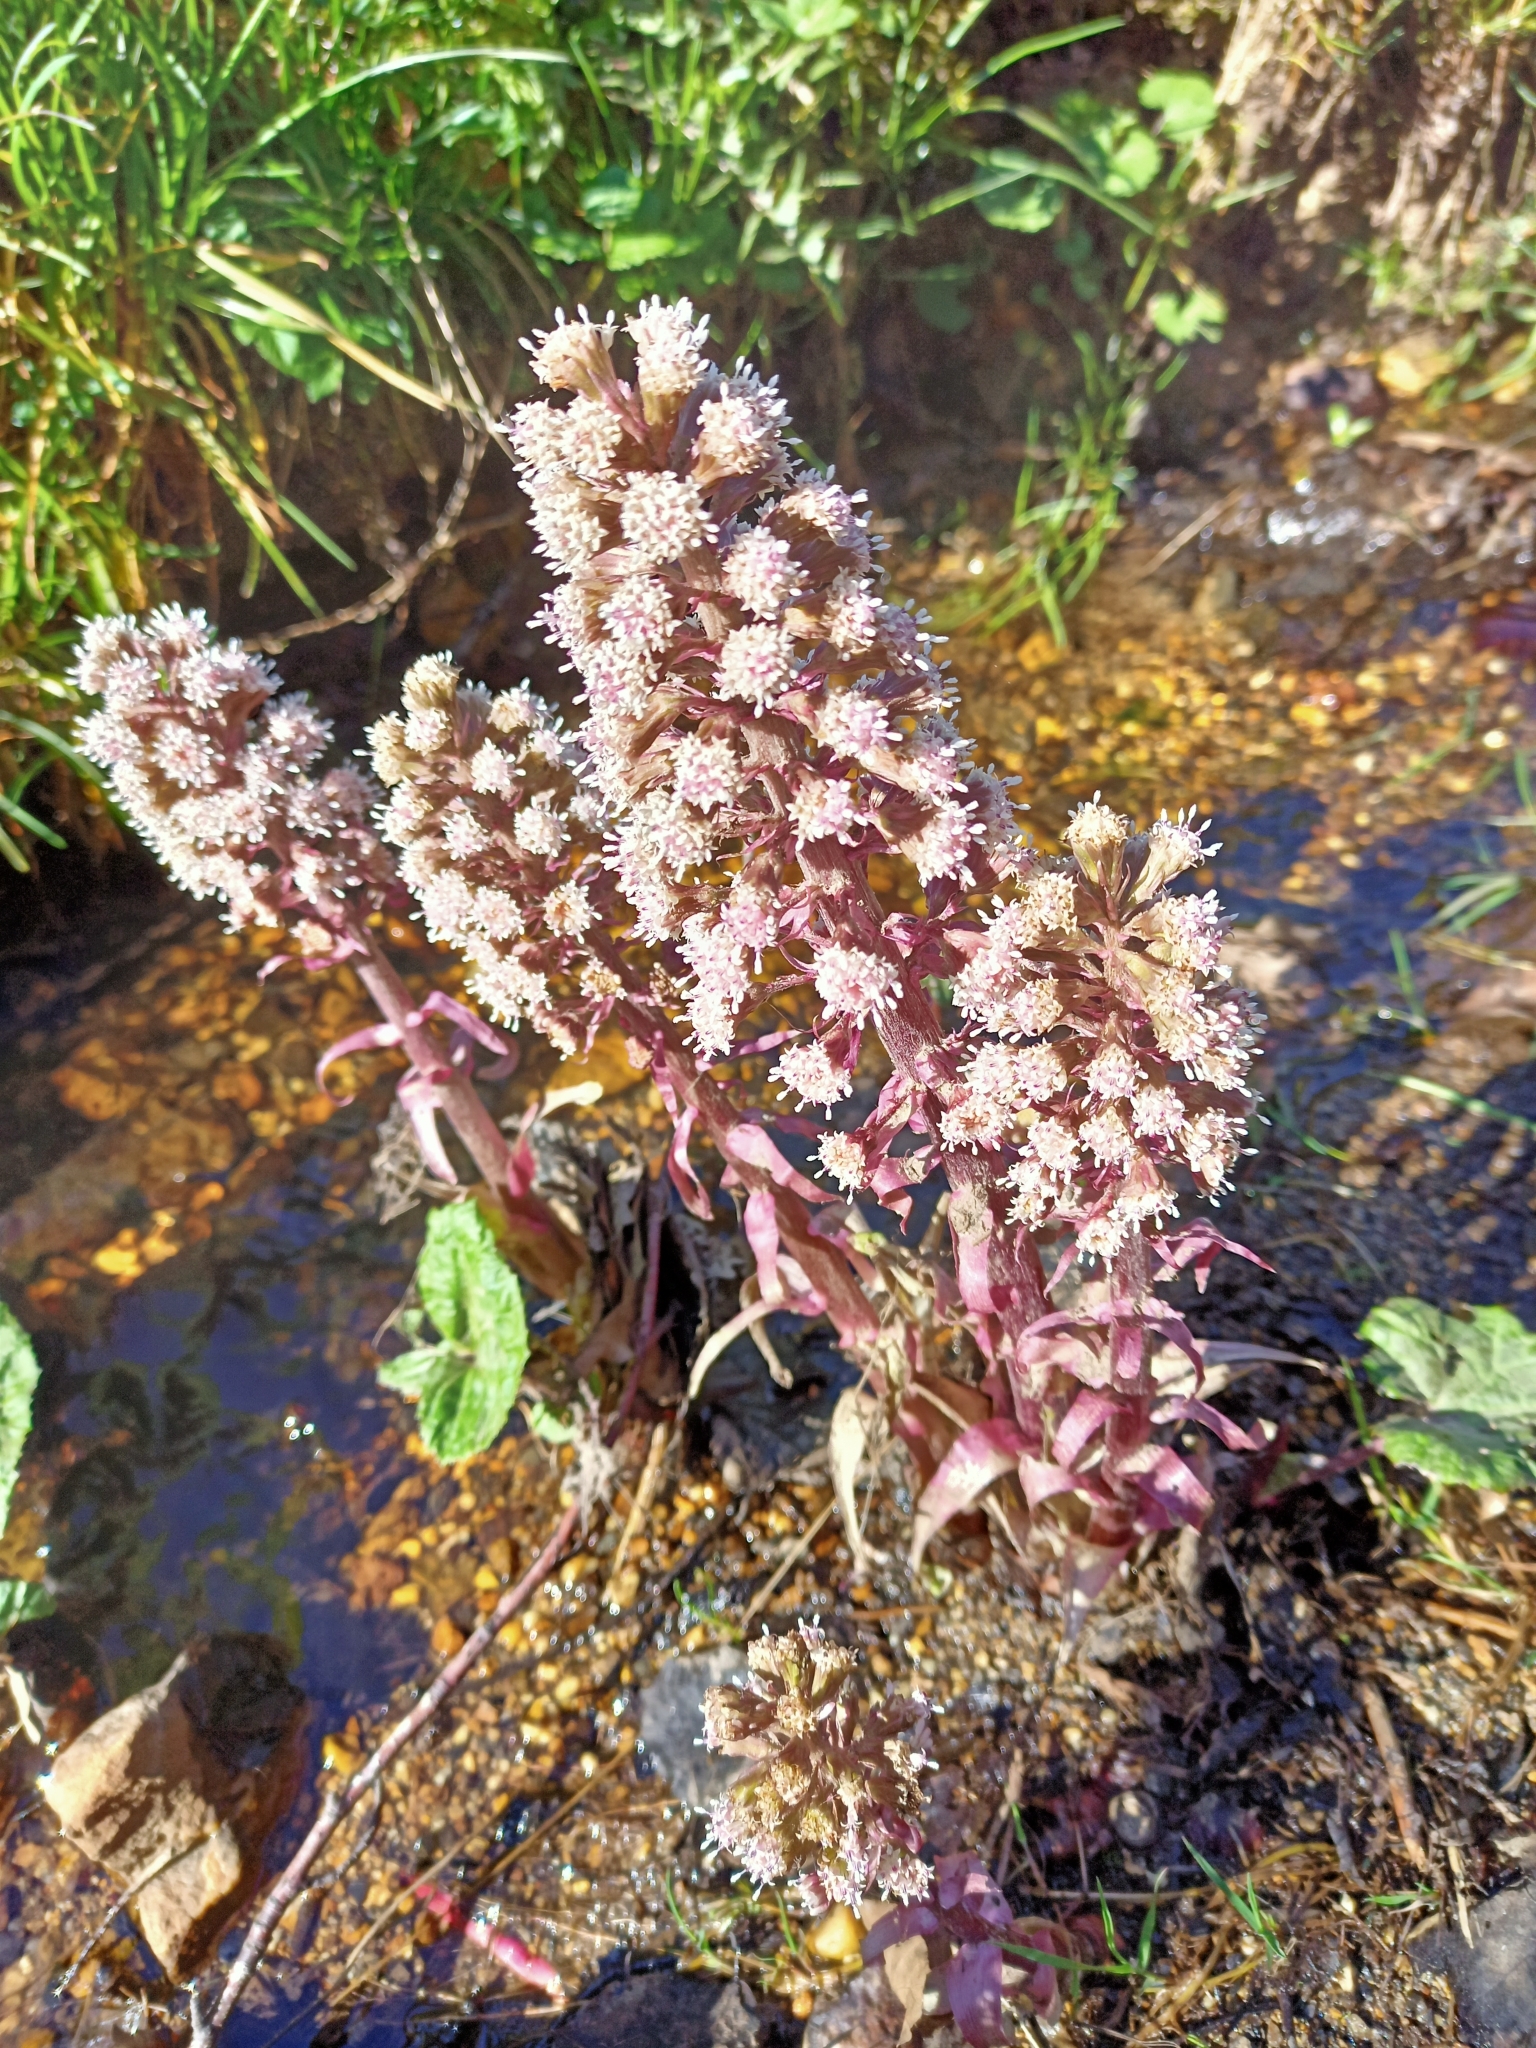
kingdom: Plantae
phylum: Tracheophyta
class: Magnoliopsida
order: Asterales
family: Asteraceae
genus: Petasites
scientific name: Petasites hybridus
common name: Butterbur
